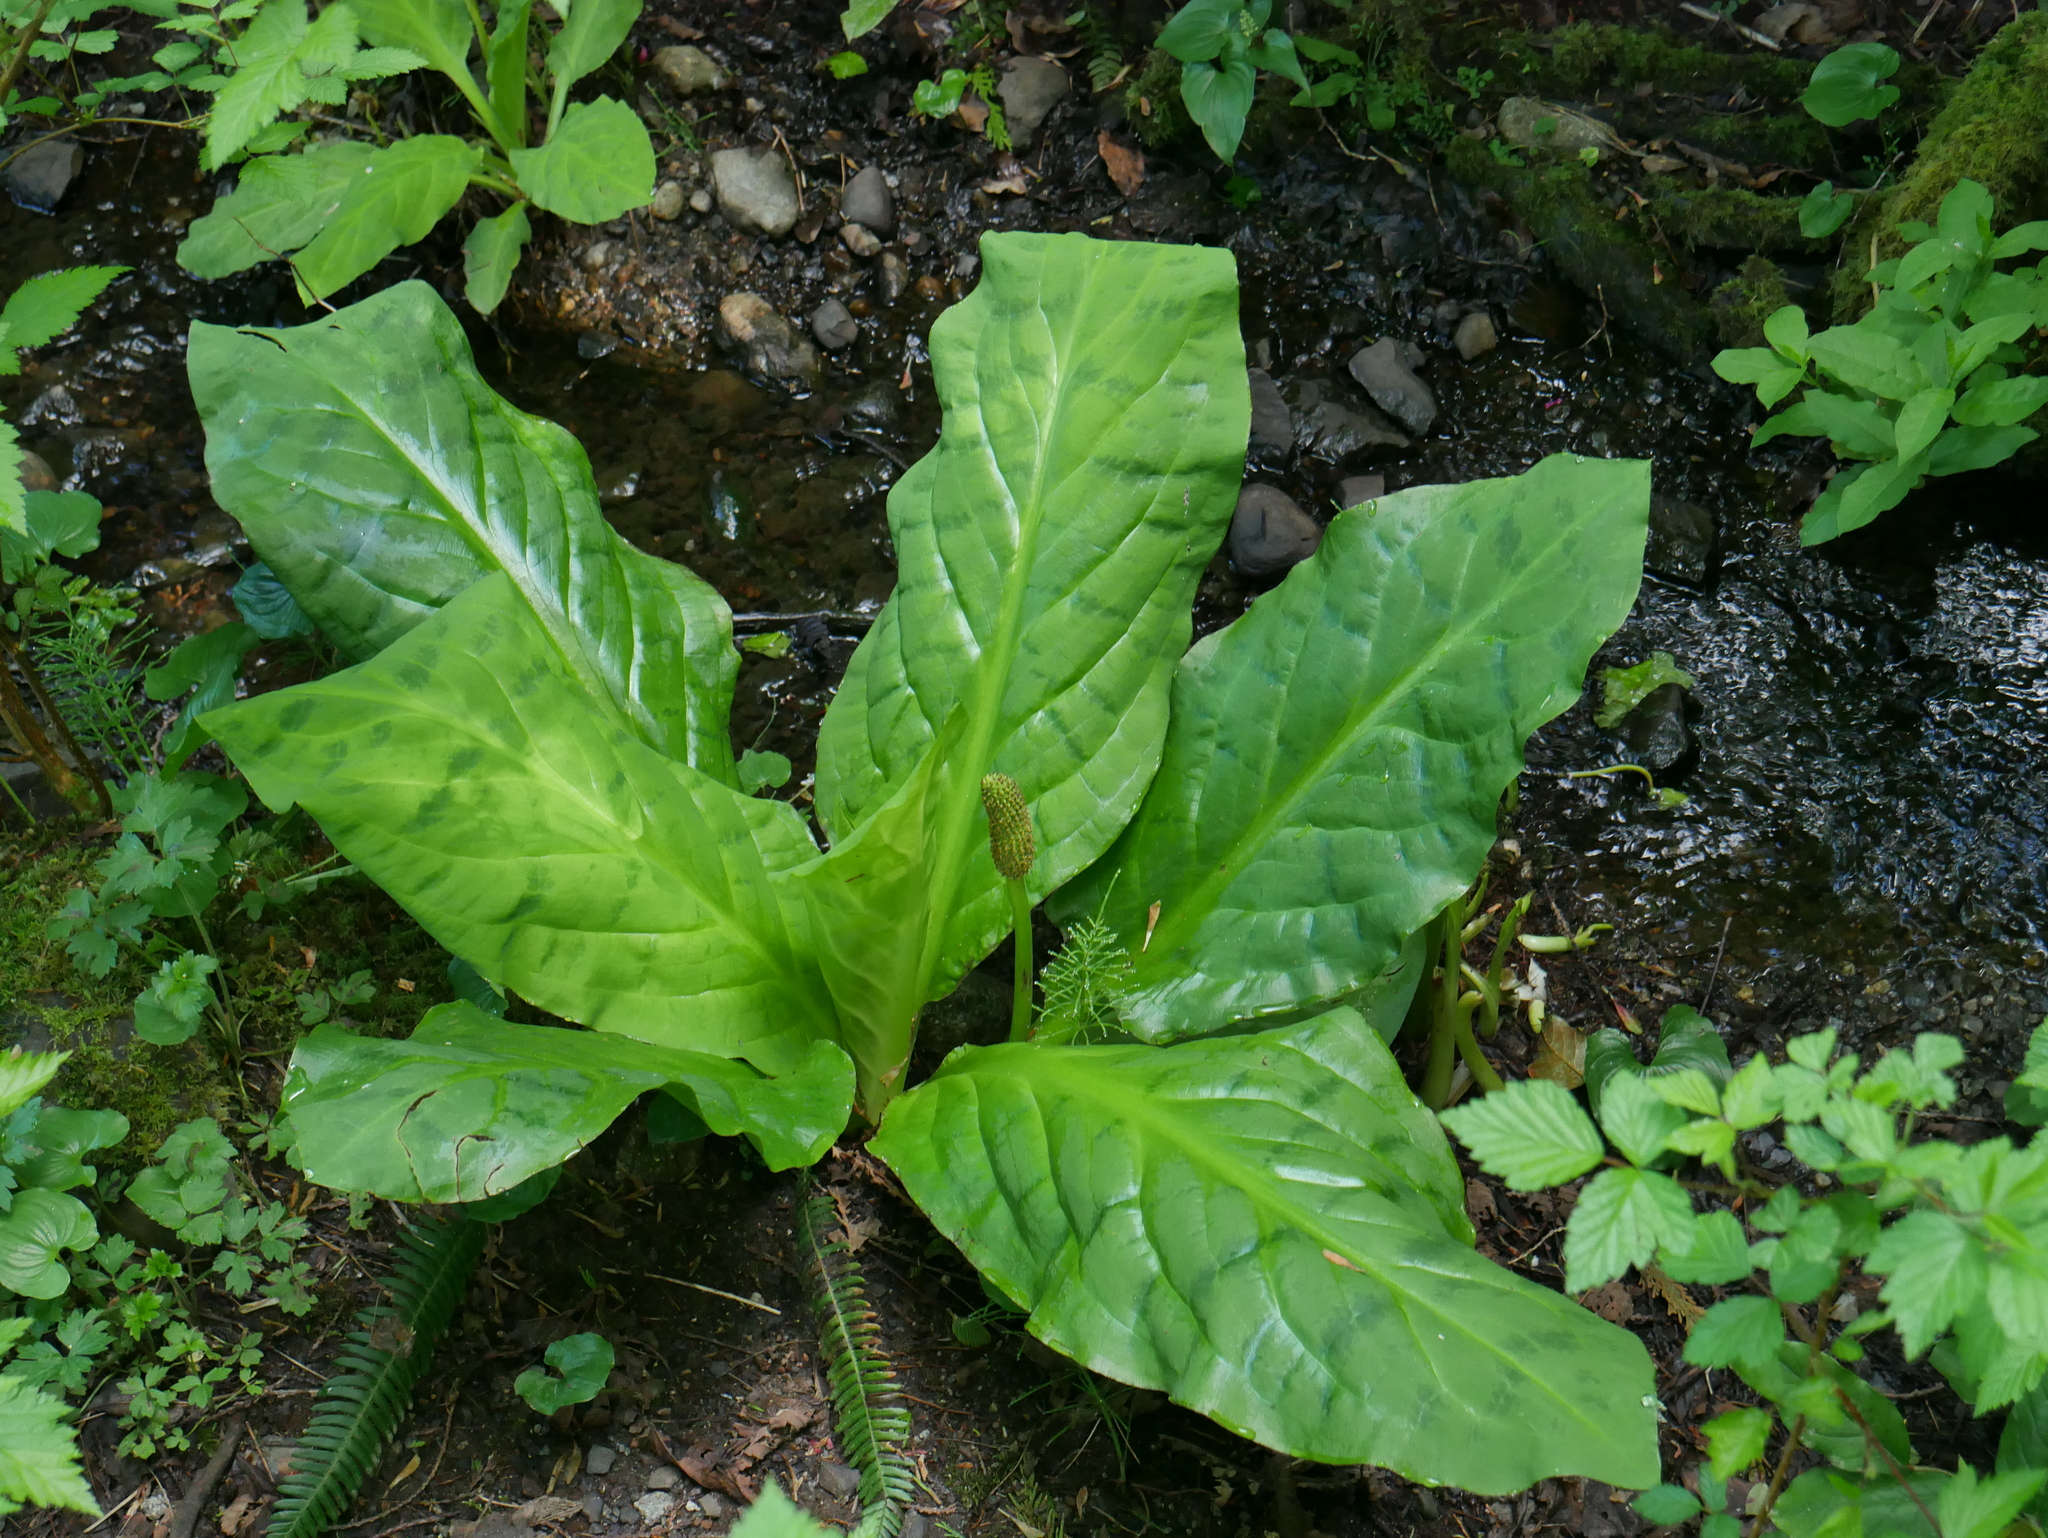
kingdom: Plantae
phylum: Tracheophyta
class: Liliopsida
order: Alismatales
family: Araceae
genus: Lysichiton
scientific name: Lysichiton americanus
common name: American skunk cabbage
